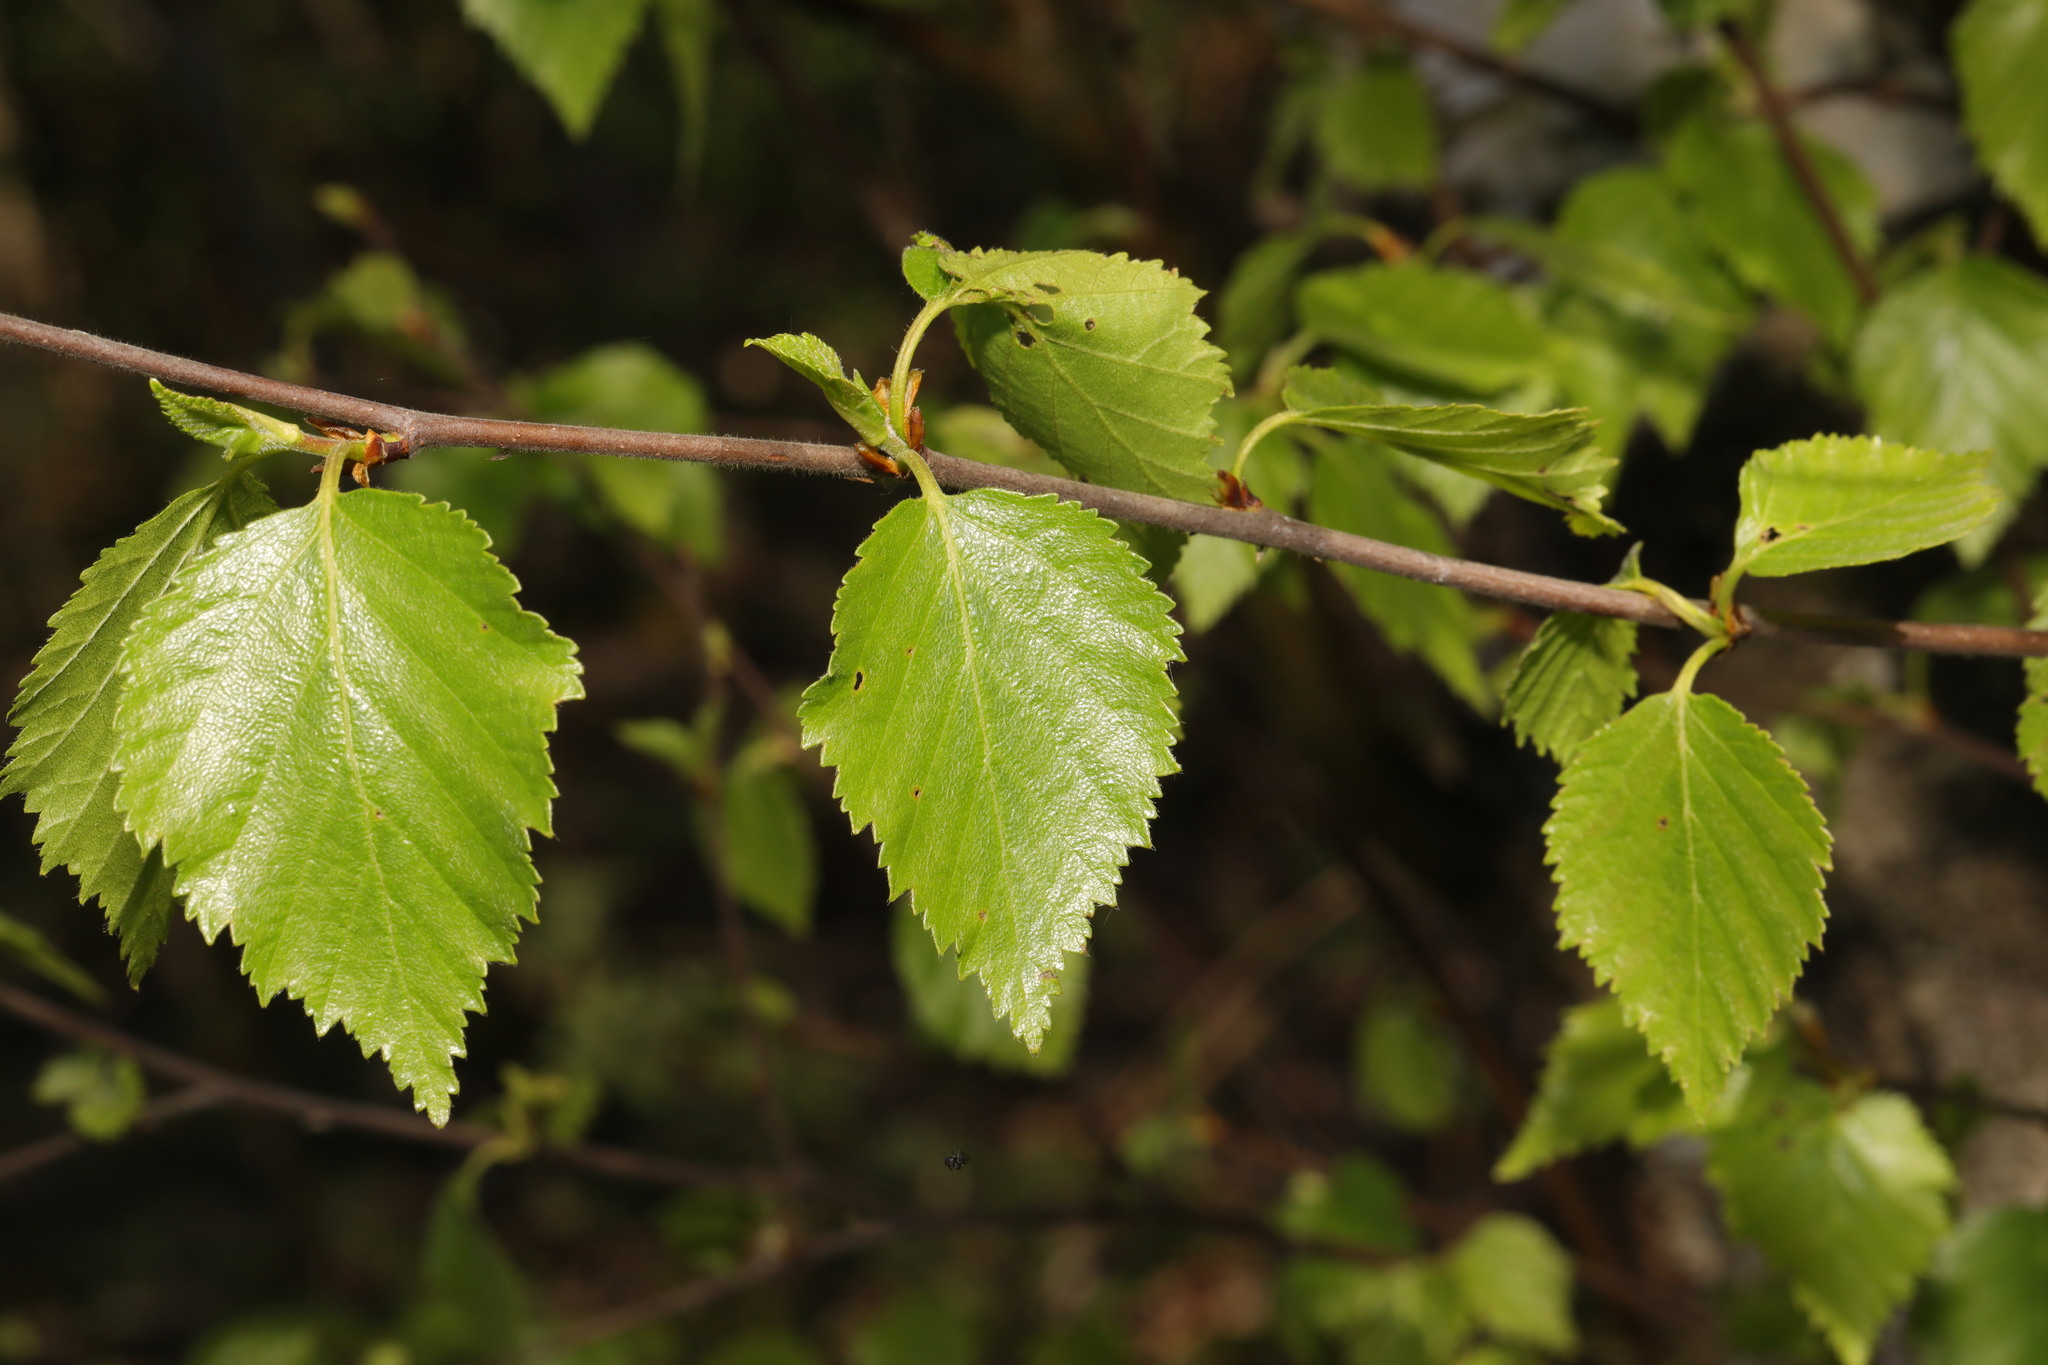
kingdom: Plantae
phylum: Tracheophyta
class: Magnoliopsida
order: Fagales
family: Betulaceae
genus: Betula
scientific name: Betula pubescens
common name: Downy birch
